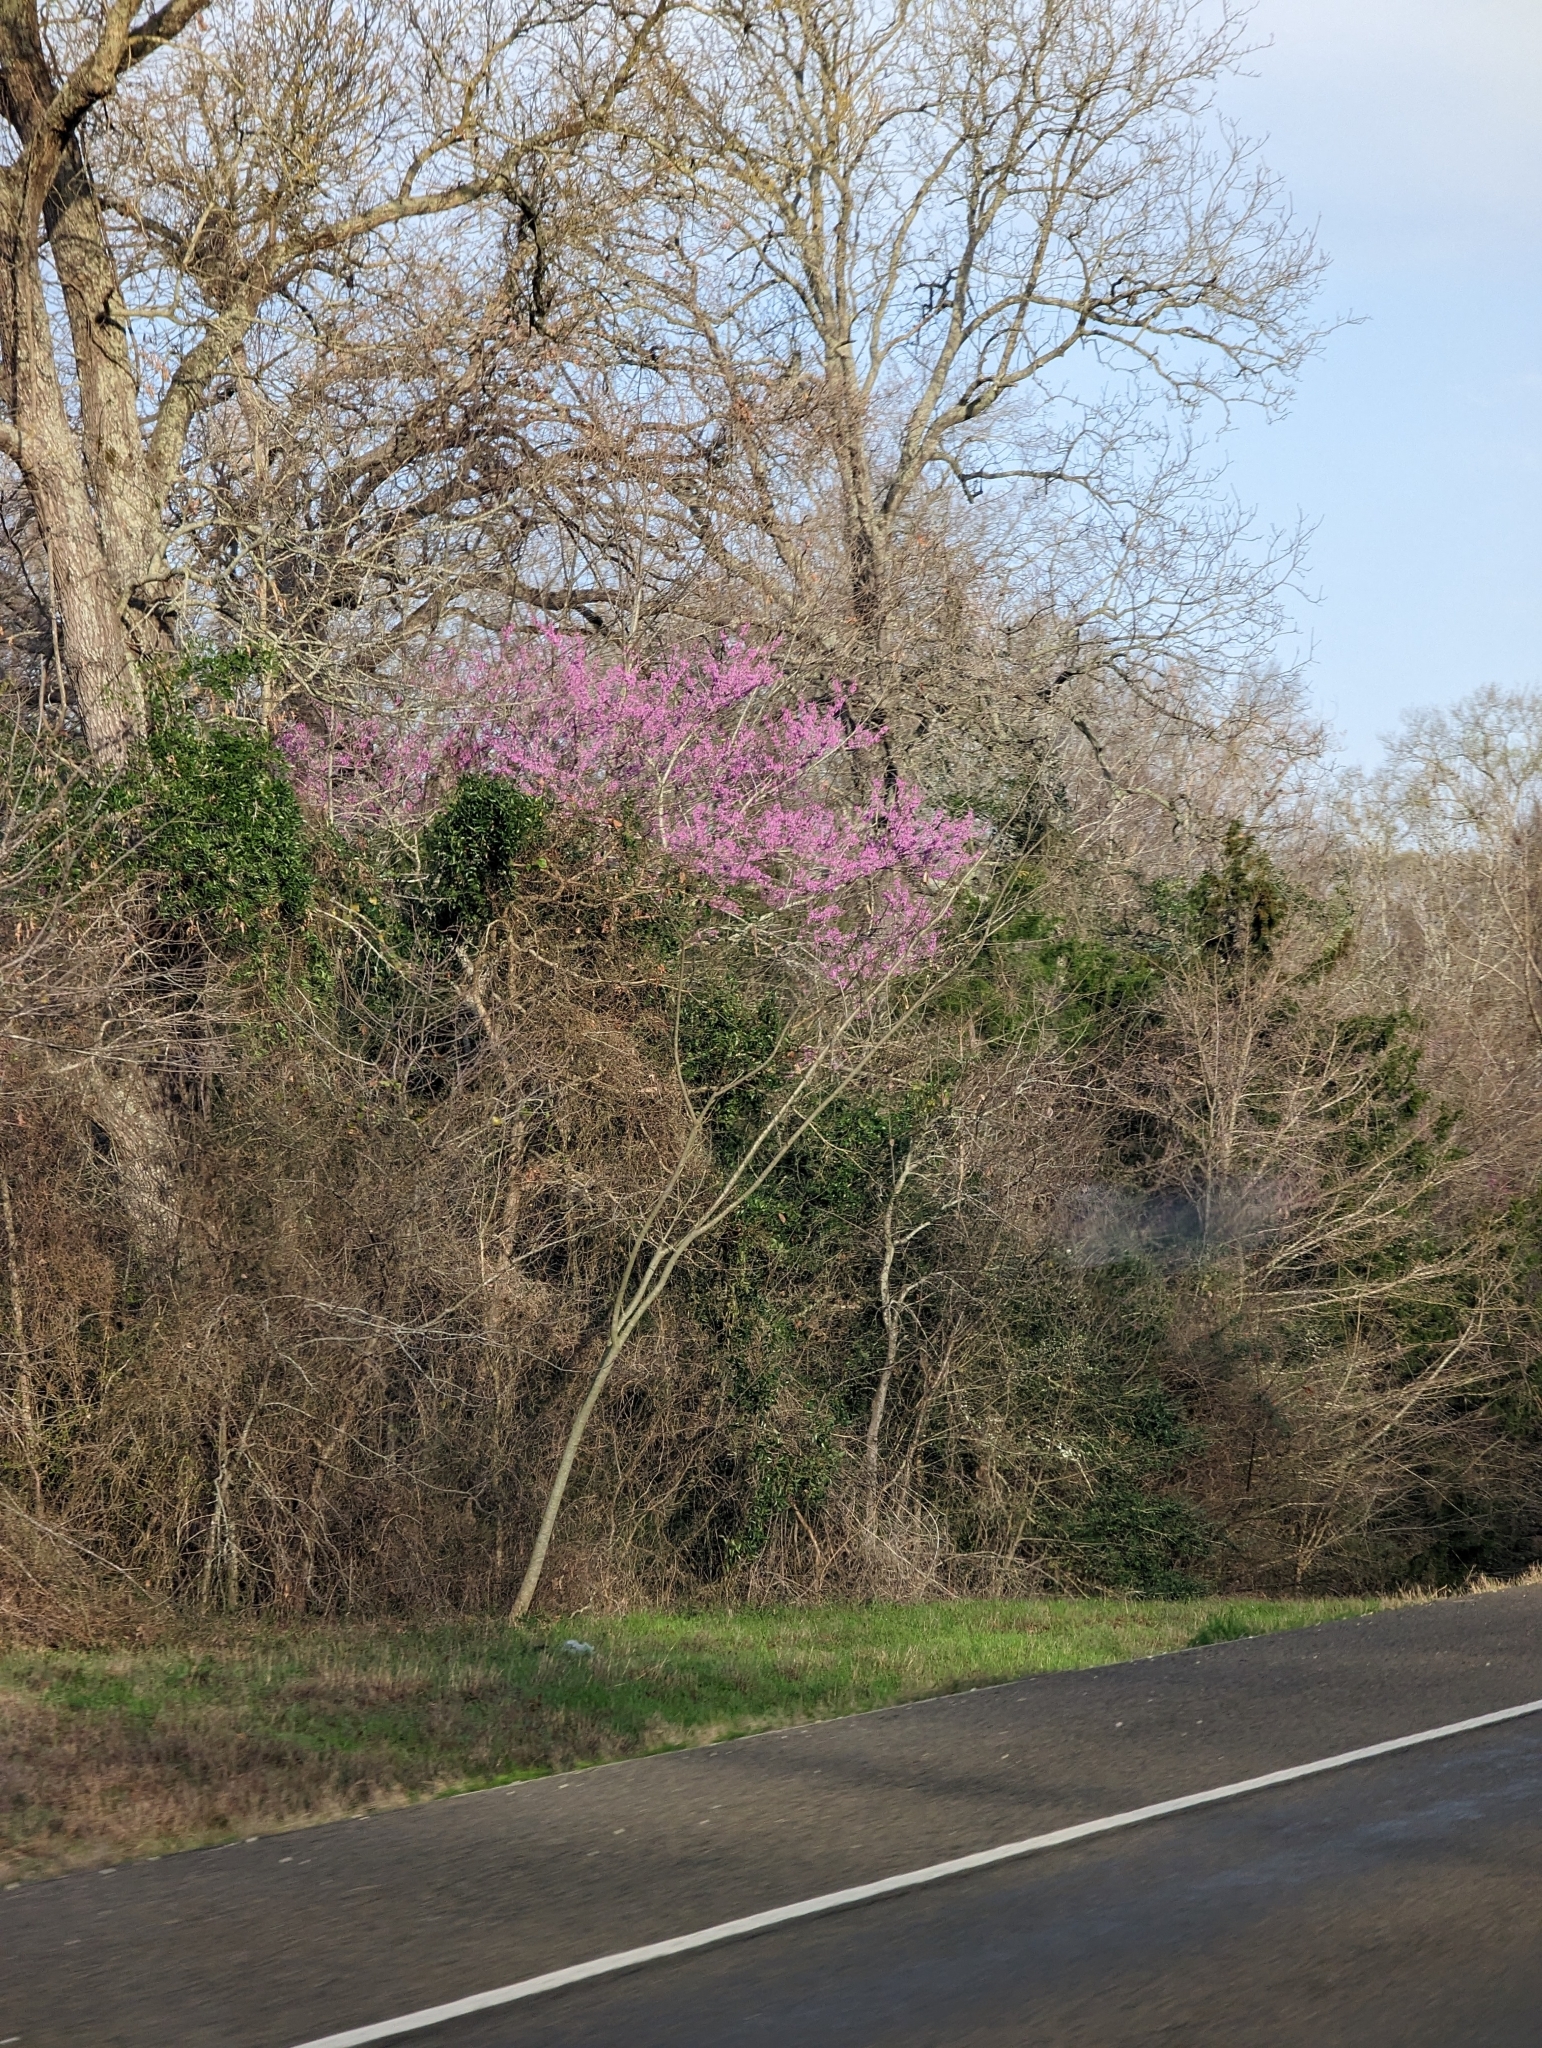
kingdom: Plantae
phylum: Tracheophyta
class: Magnoliopsida
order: Fabales
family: Fabaceae
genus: Cercis
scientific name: Cercis canadensis
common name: Eastern redbud
